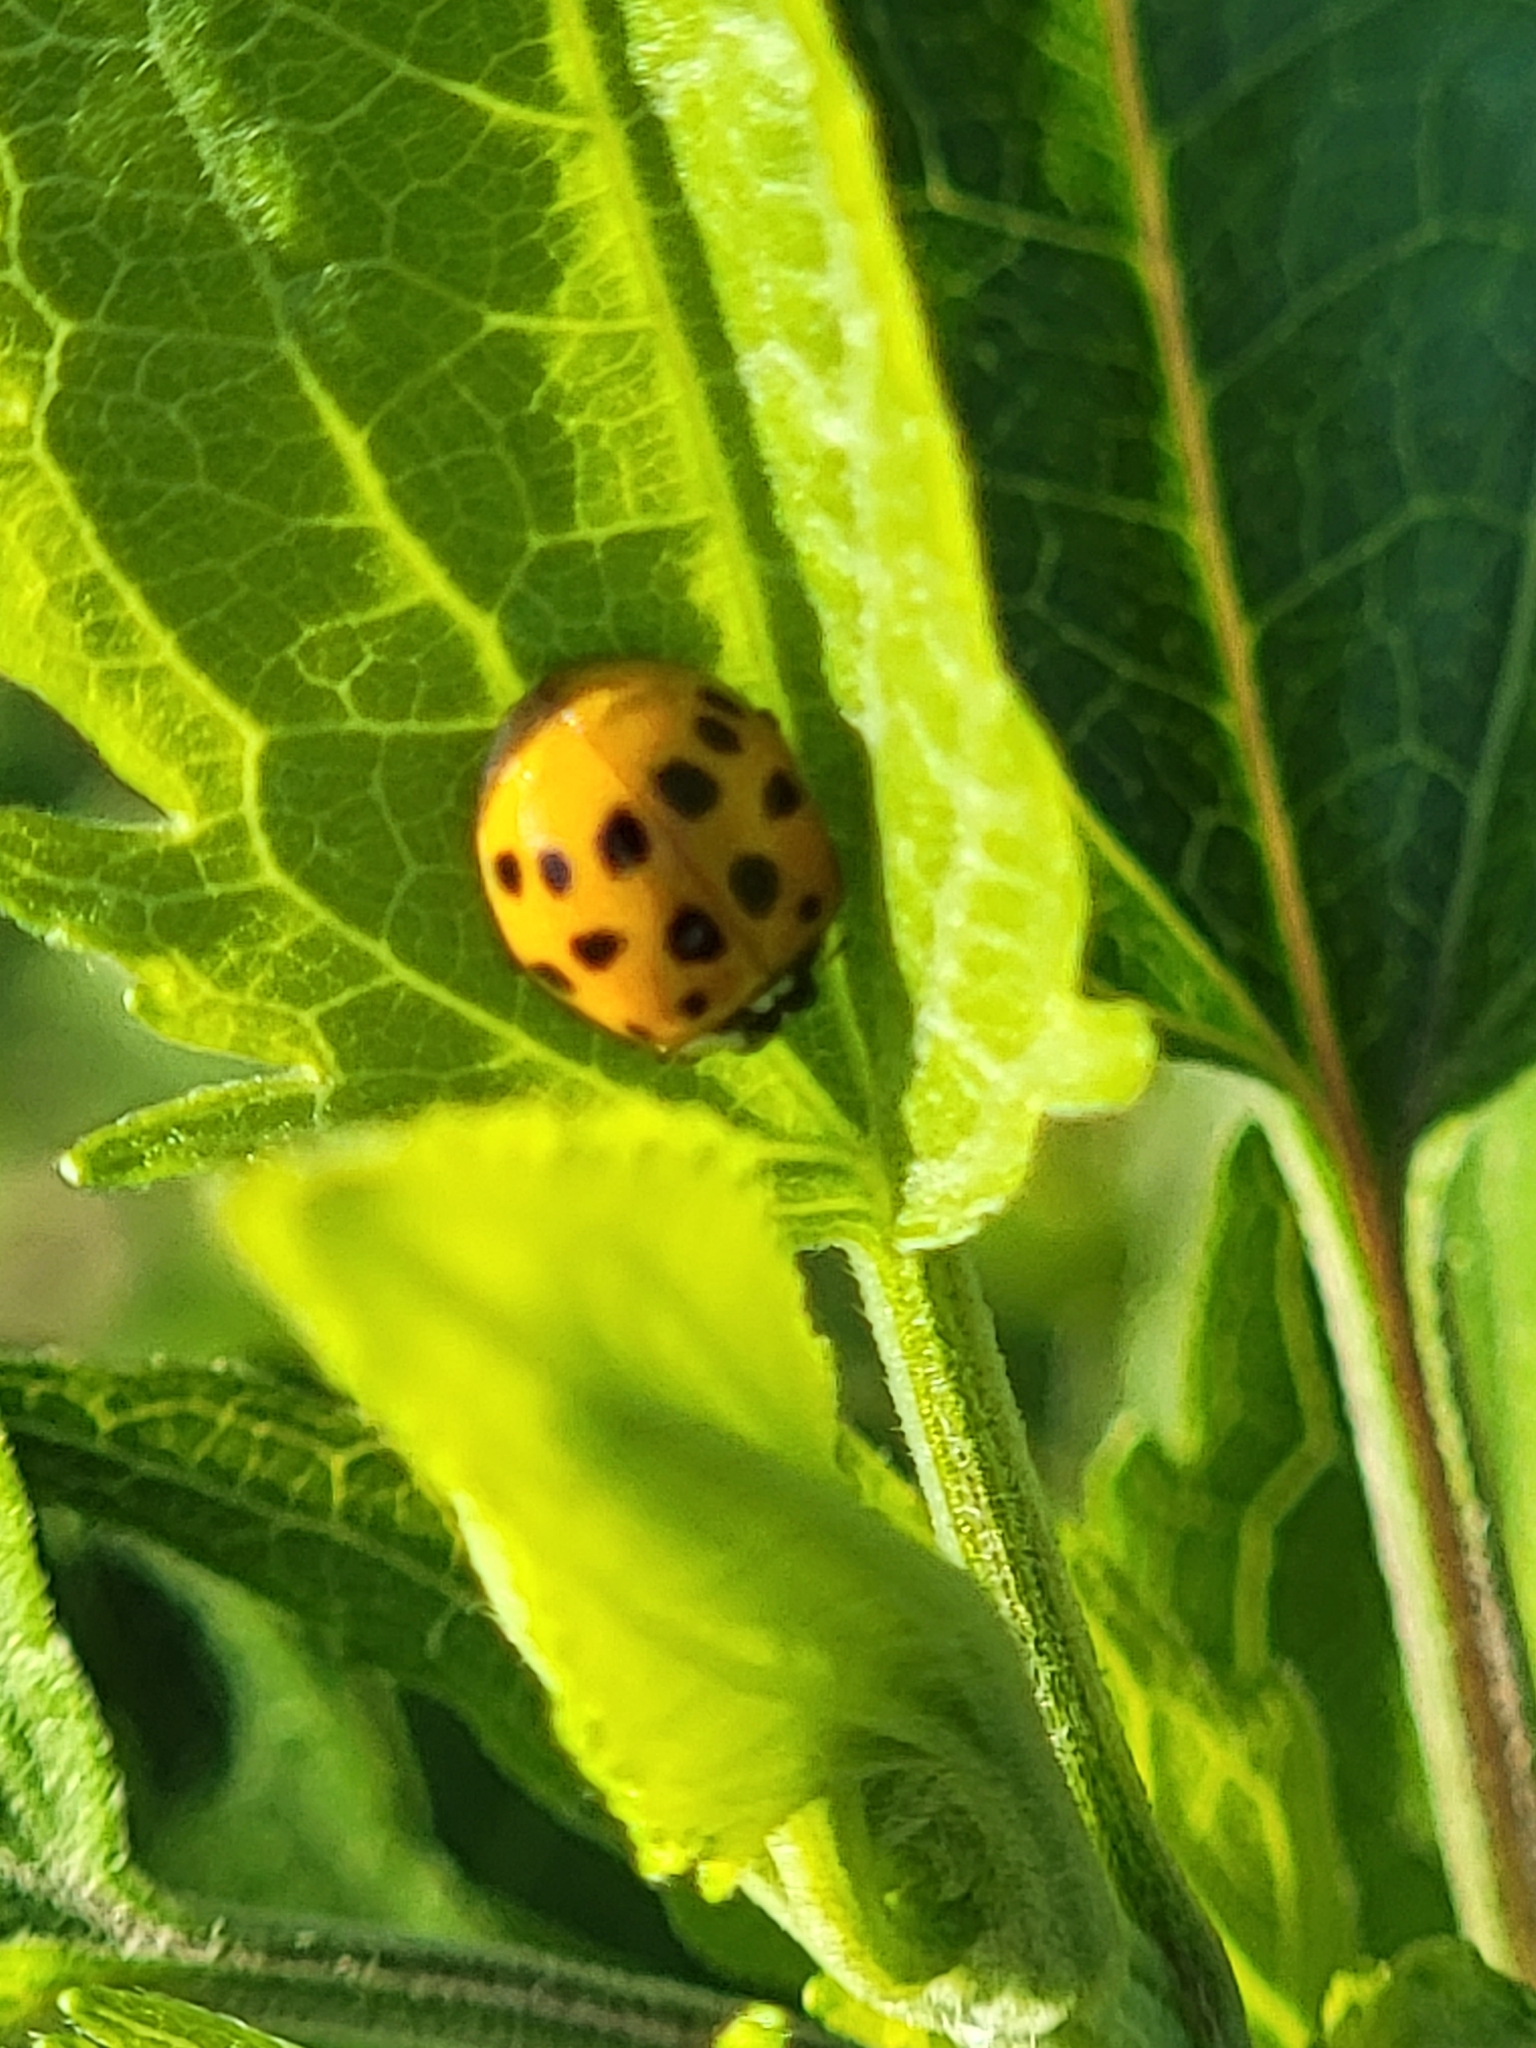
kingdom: Animalia
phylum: Arthropoda
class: Insecta
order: Coleoptera
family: Coccinellidae
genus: Harmonia
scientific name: Harmonia axyridis
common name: Harlequin ladybird
